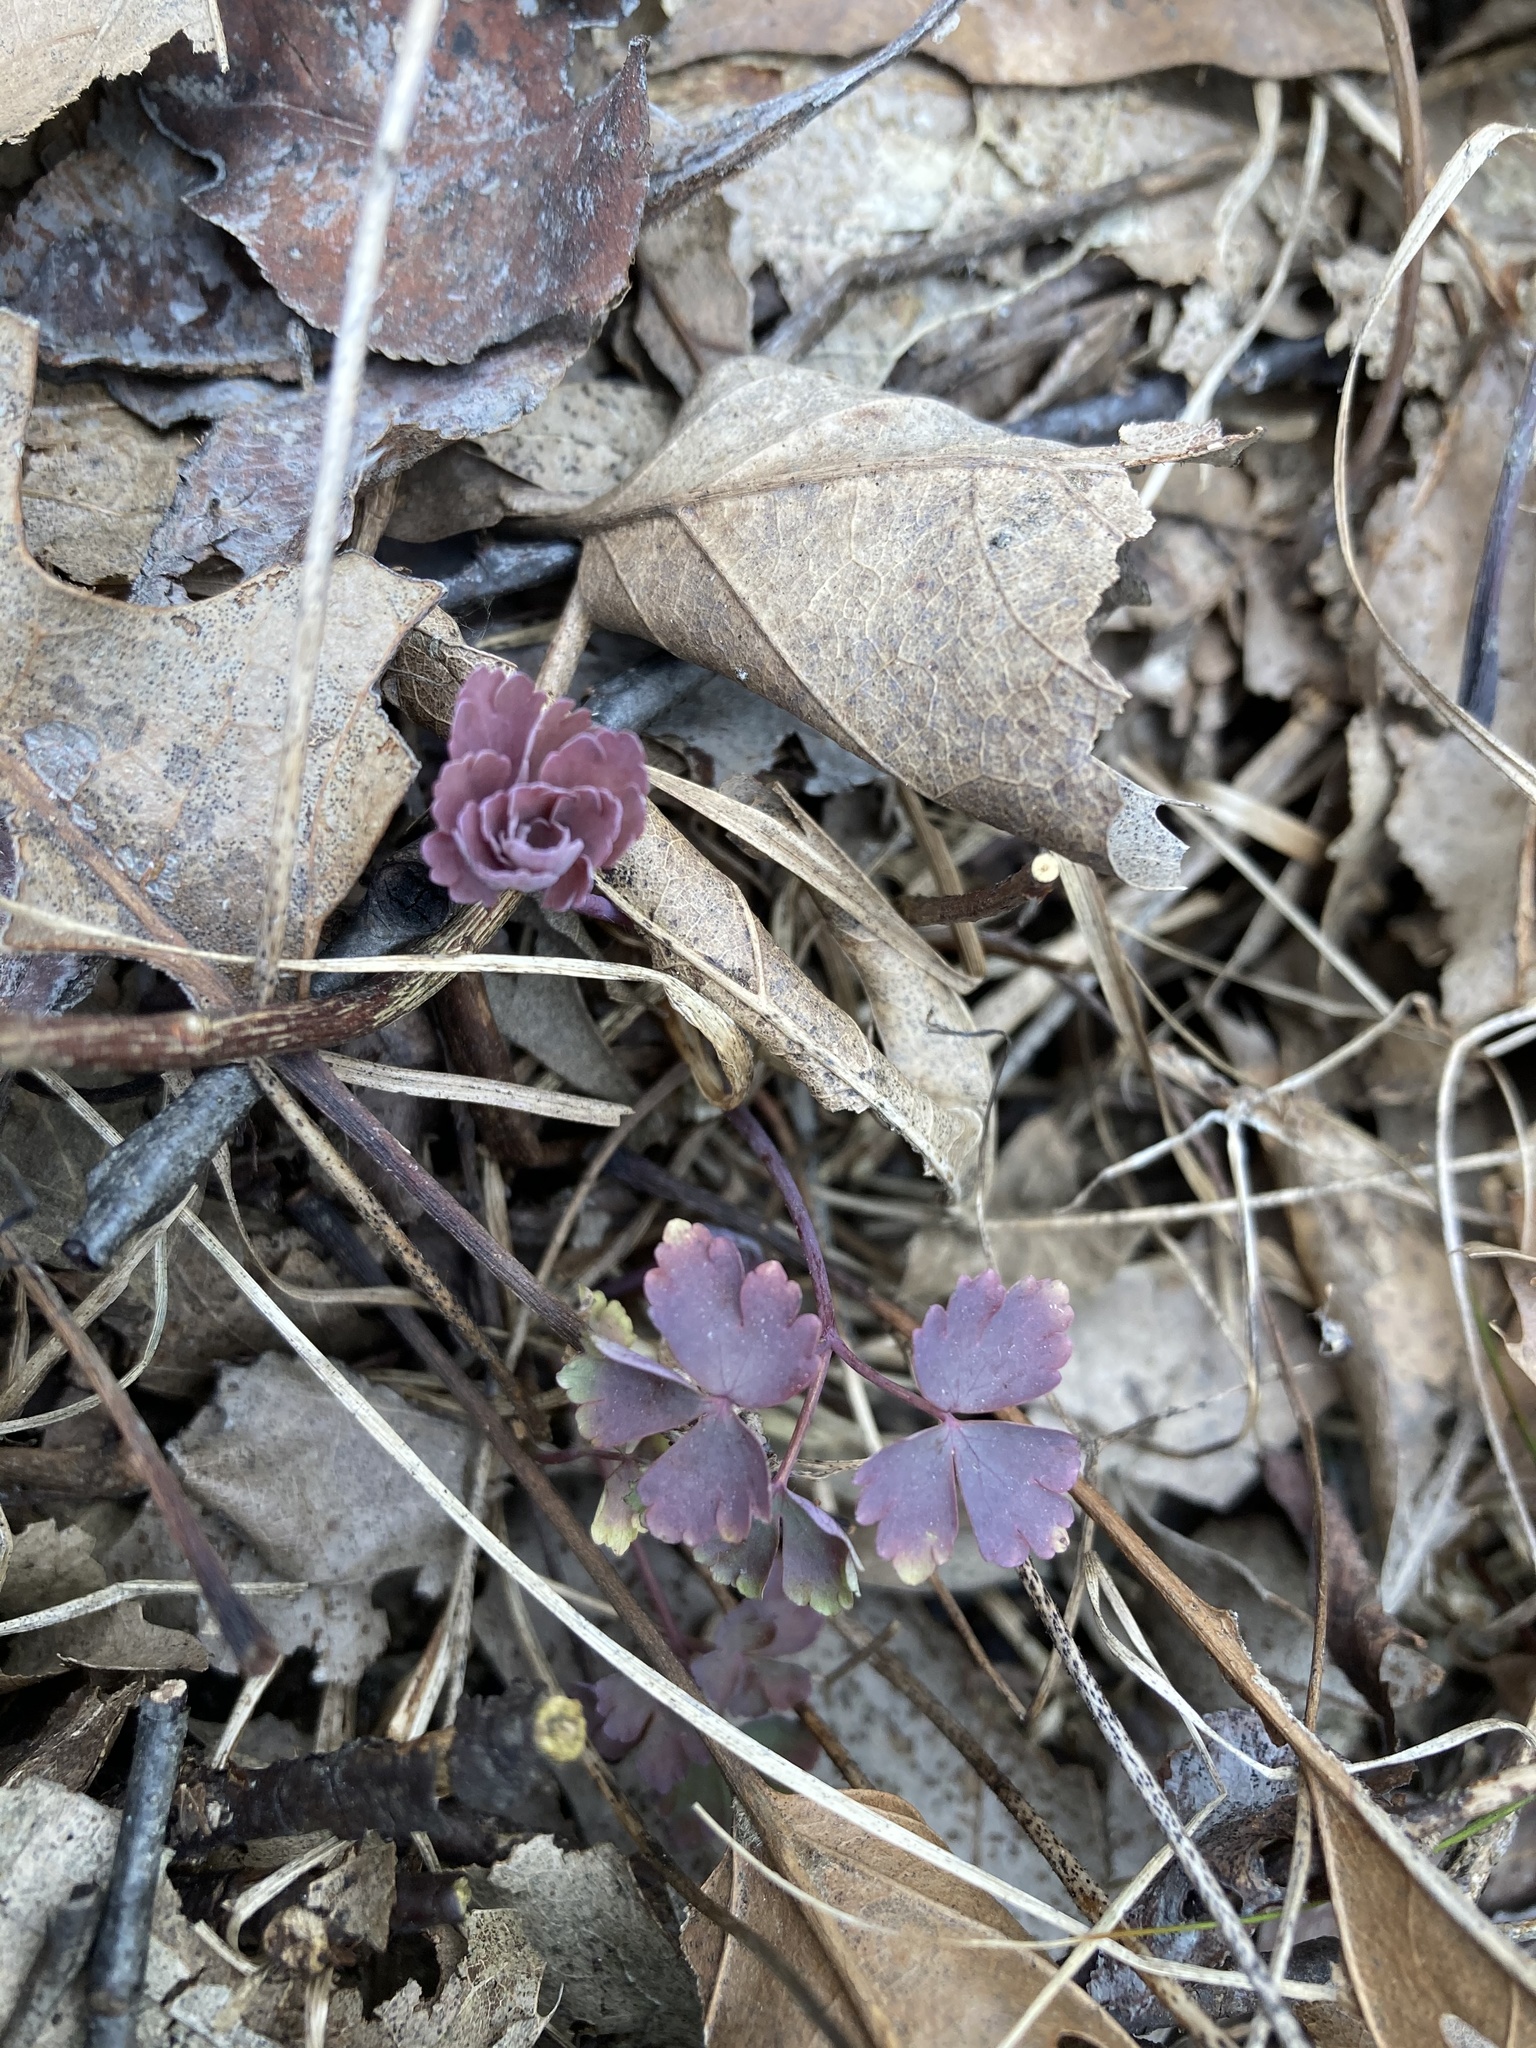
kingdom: Plantae
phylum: Tracheophyta
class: Magnoliopsida
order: Ranunculales
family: Ranunculaceae
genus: Aquilegia
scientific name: Aquilegia canadensis
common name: American columbine
